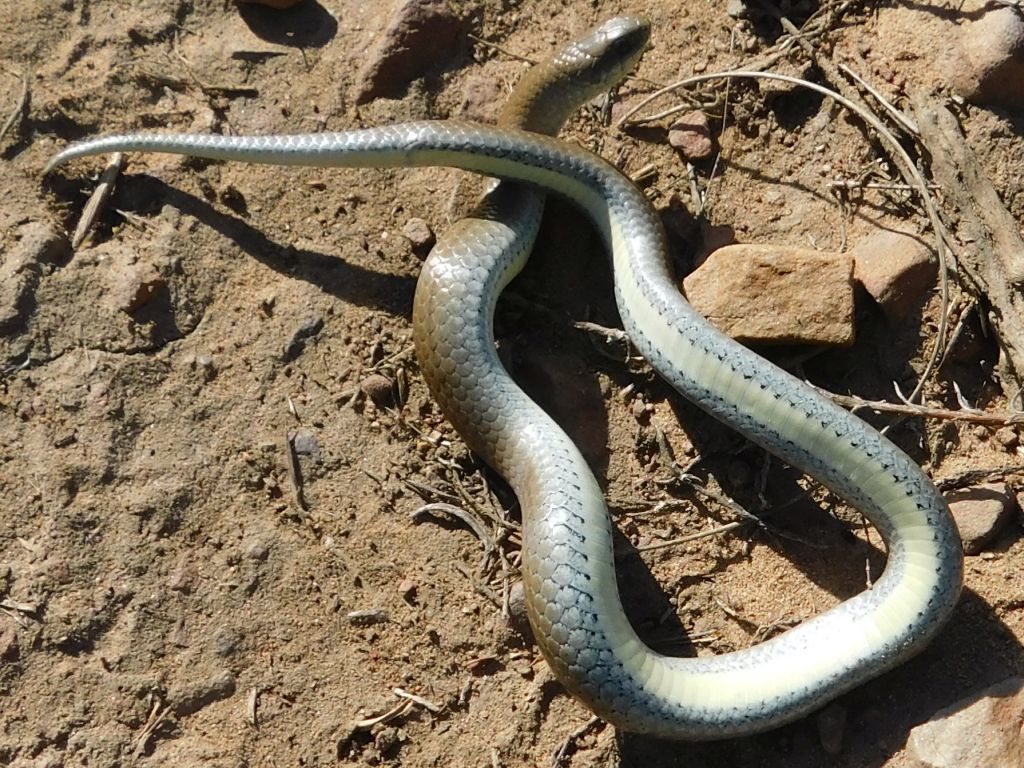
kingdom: Animalia
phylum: Chordata
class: Squamata
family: Pseudoxyrhophiidae
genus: Duberria
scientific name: Duberria lutrix
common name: Common slug eater
